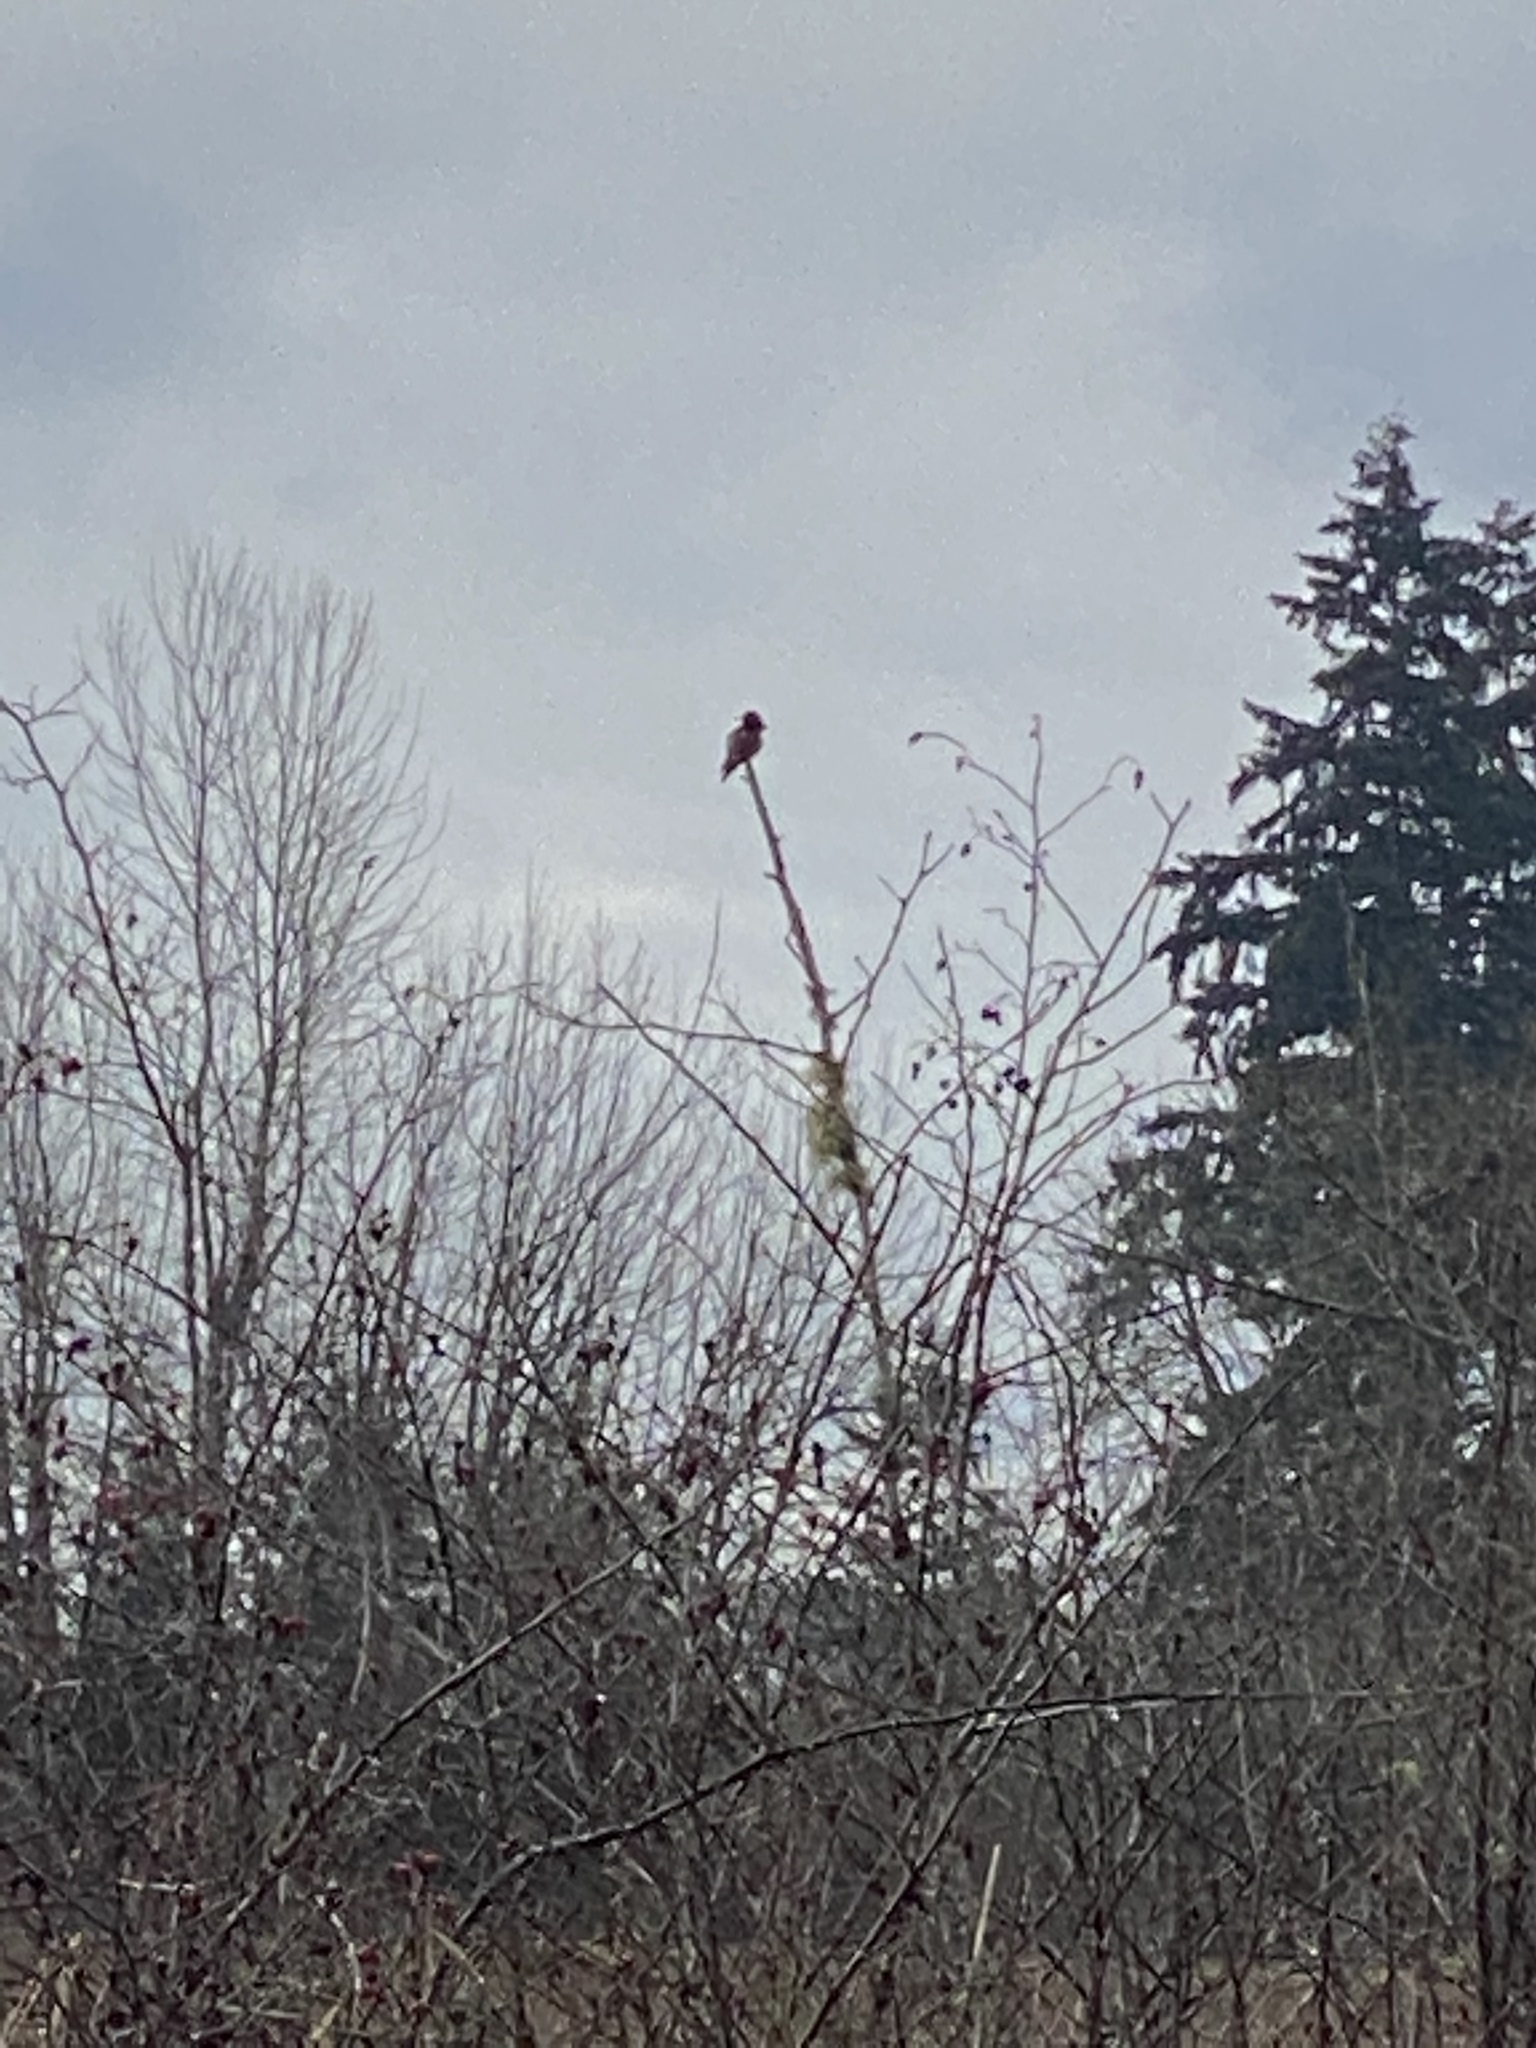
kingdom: Animalia
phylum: Chordata
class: Aves
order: Apodiformes
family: Trochilidae
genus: Calypte
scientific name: Calypte anna
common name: Anna's hummingbird
